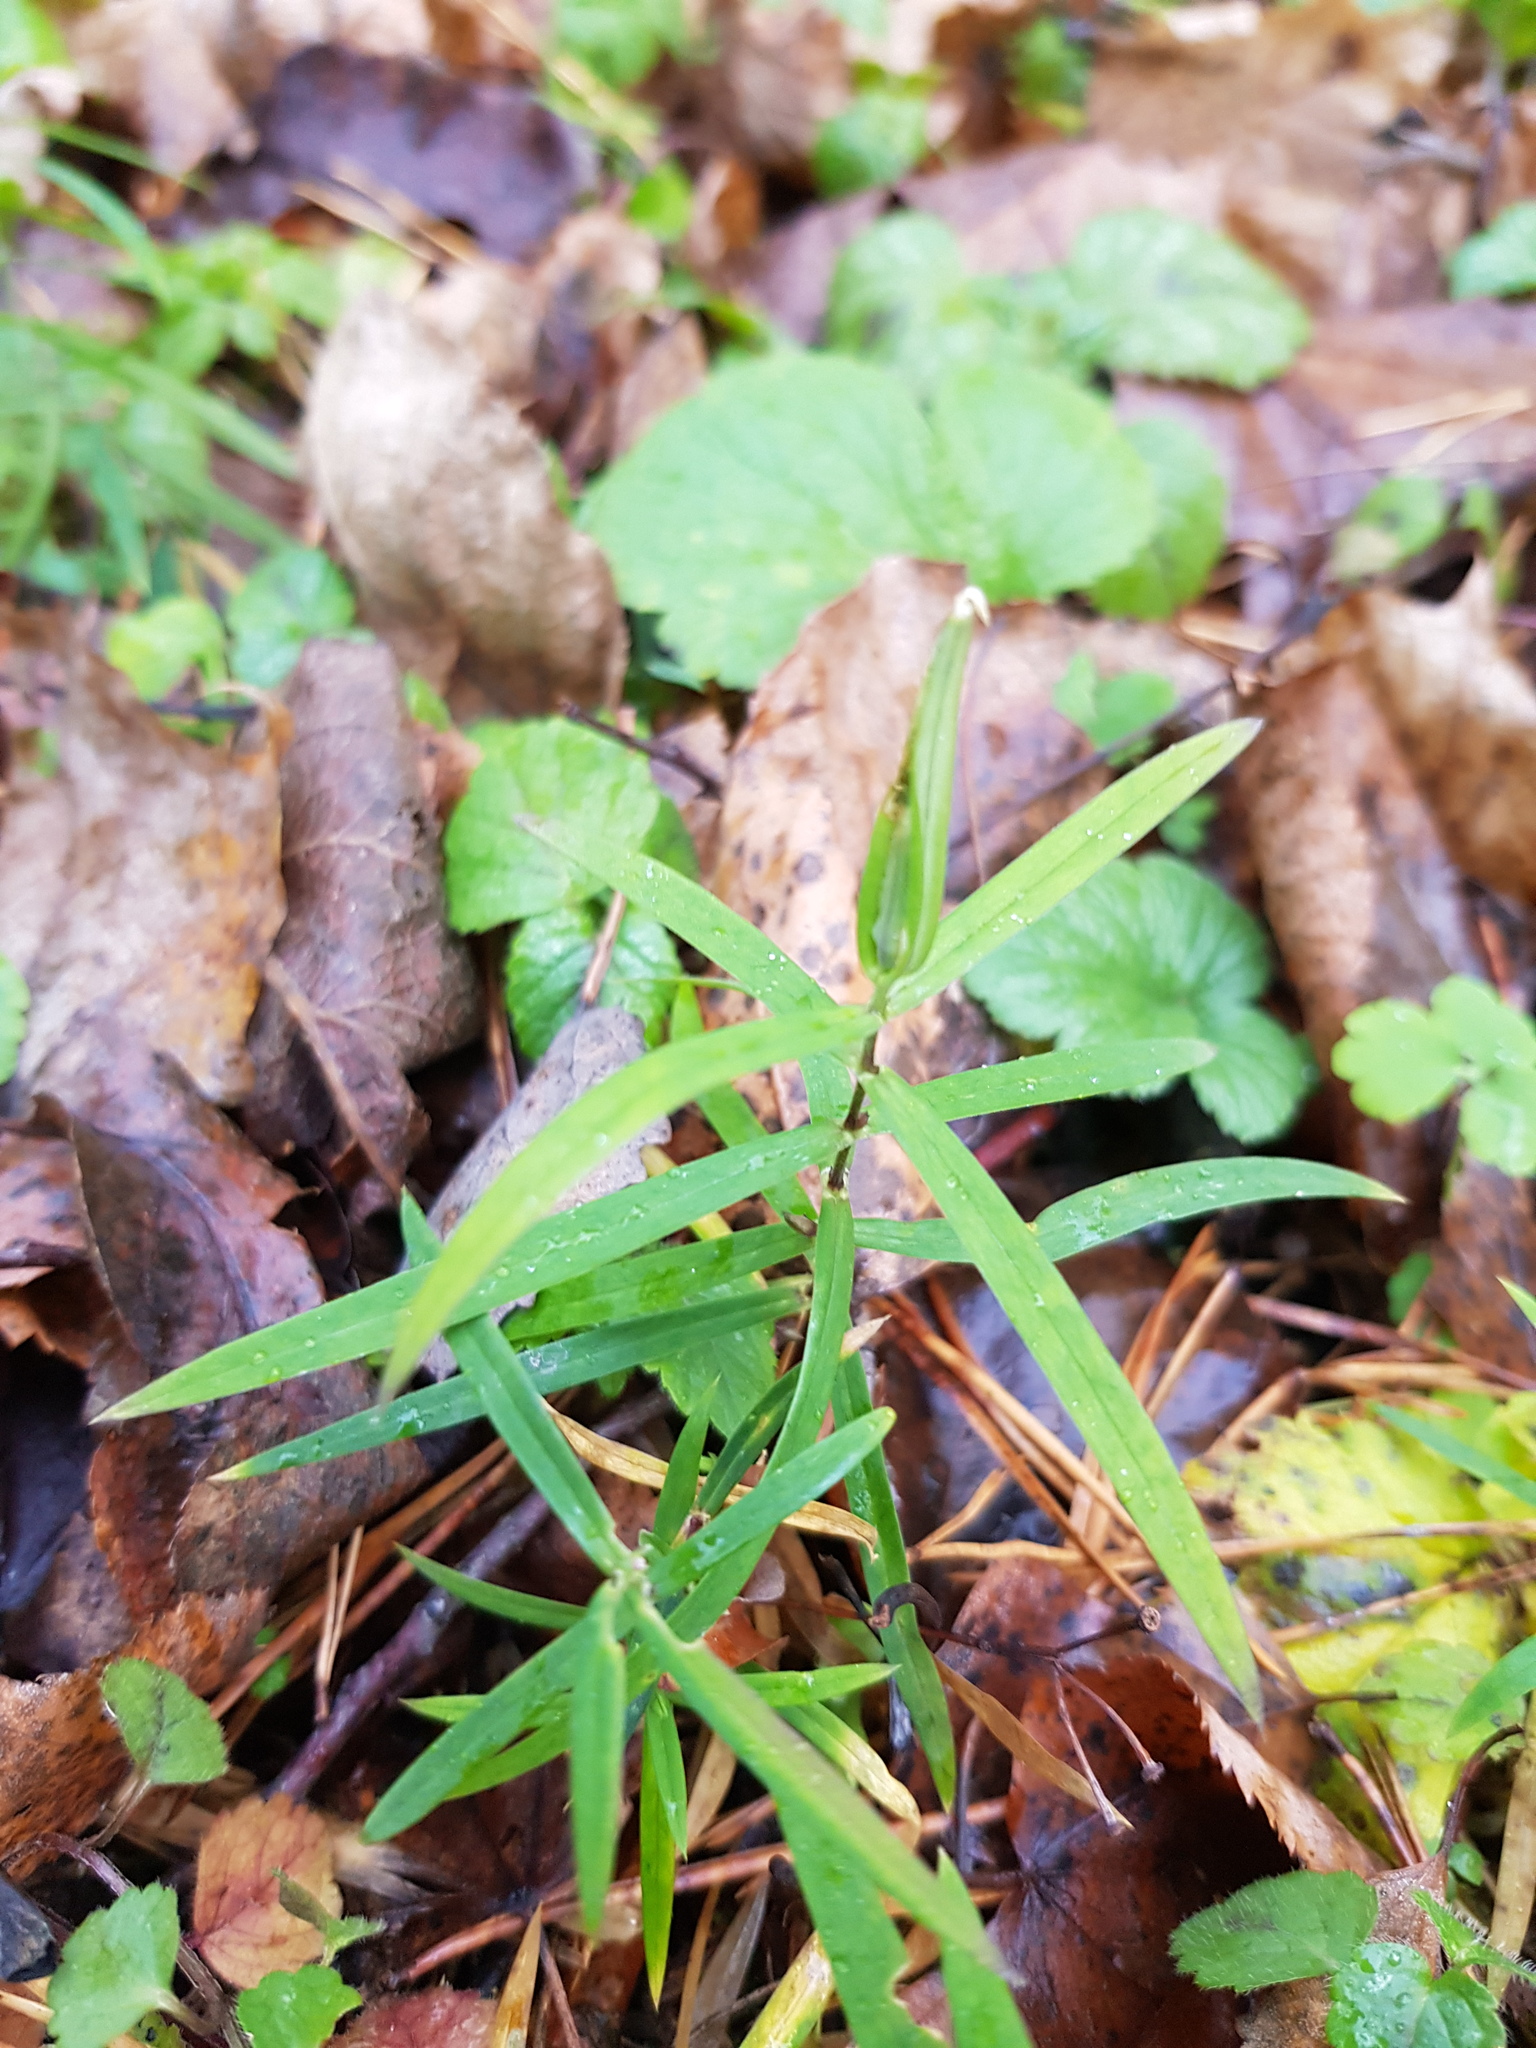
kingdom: Plantae
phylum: Tracheophyta
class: Magnoliopsida
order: Caryophyllales
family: Caryophyllaceae
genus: Rabelera
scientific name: Rabelera holostea
